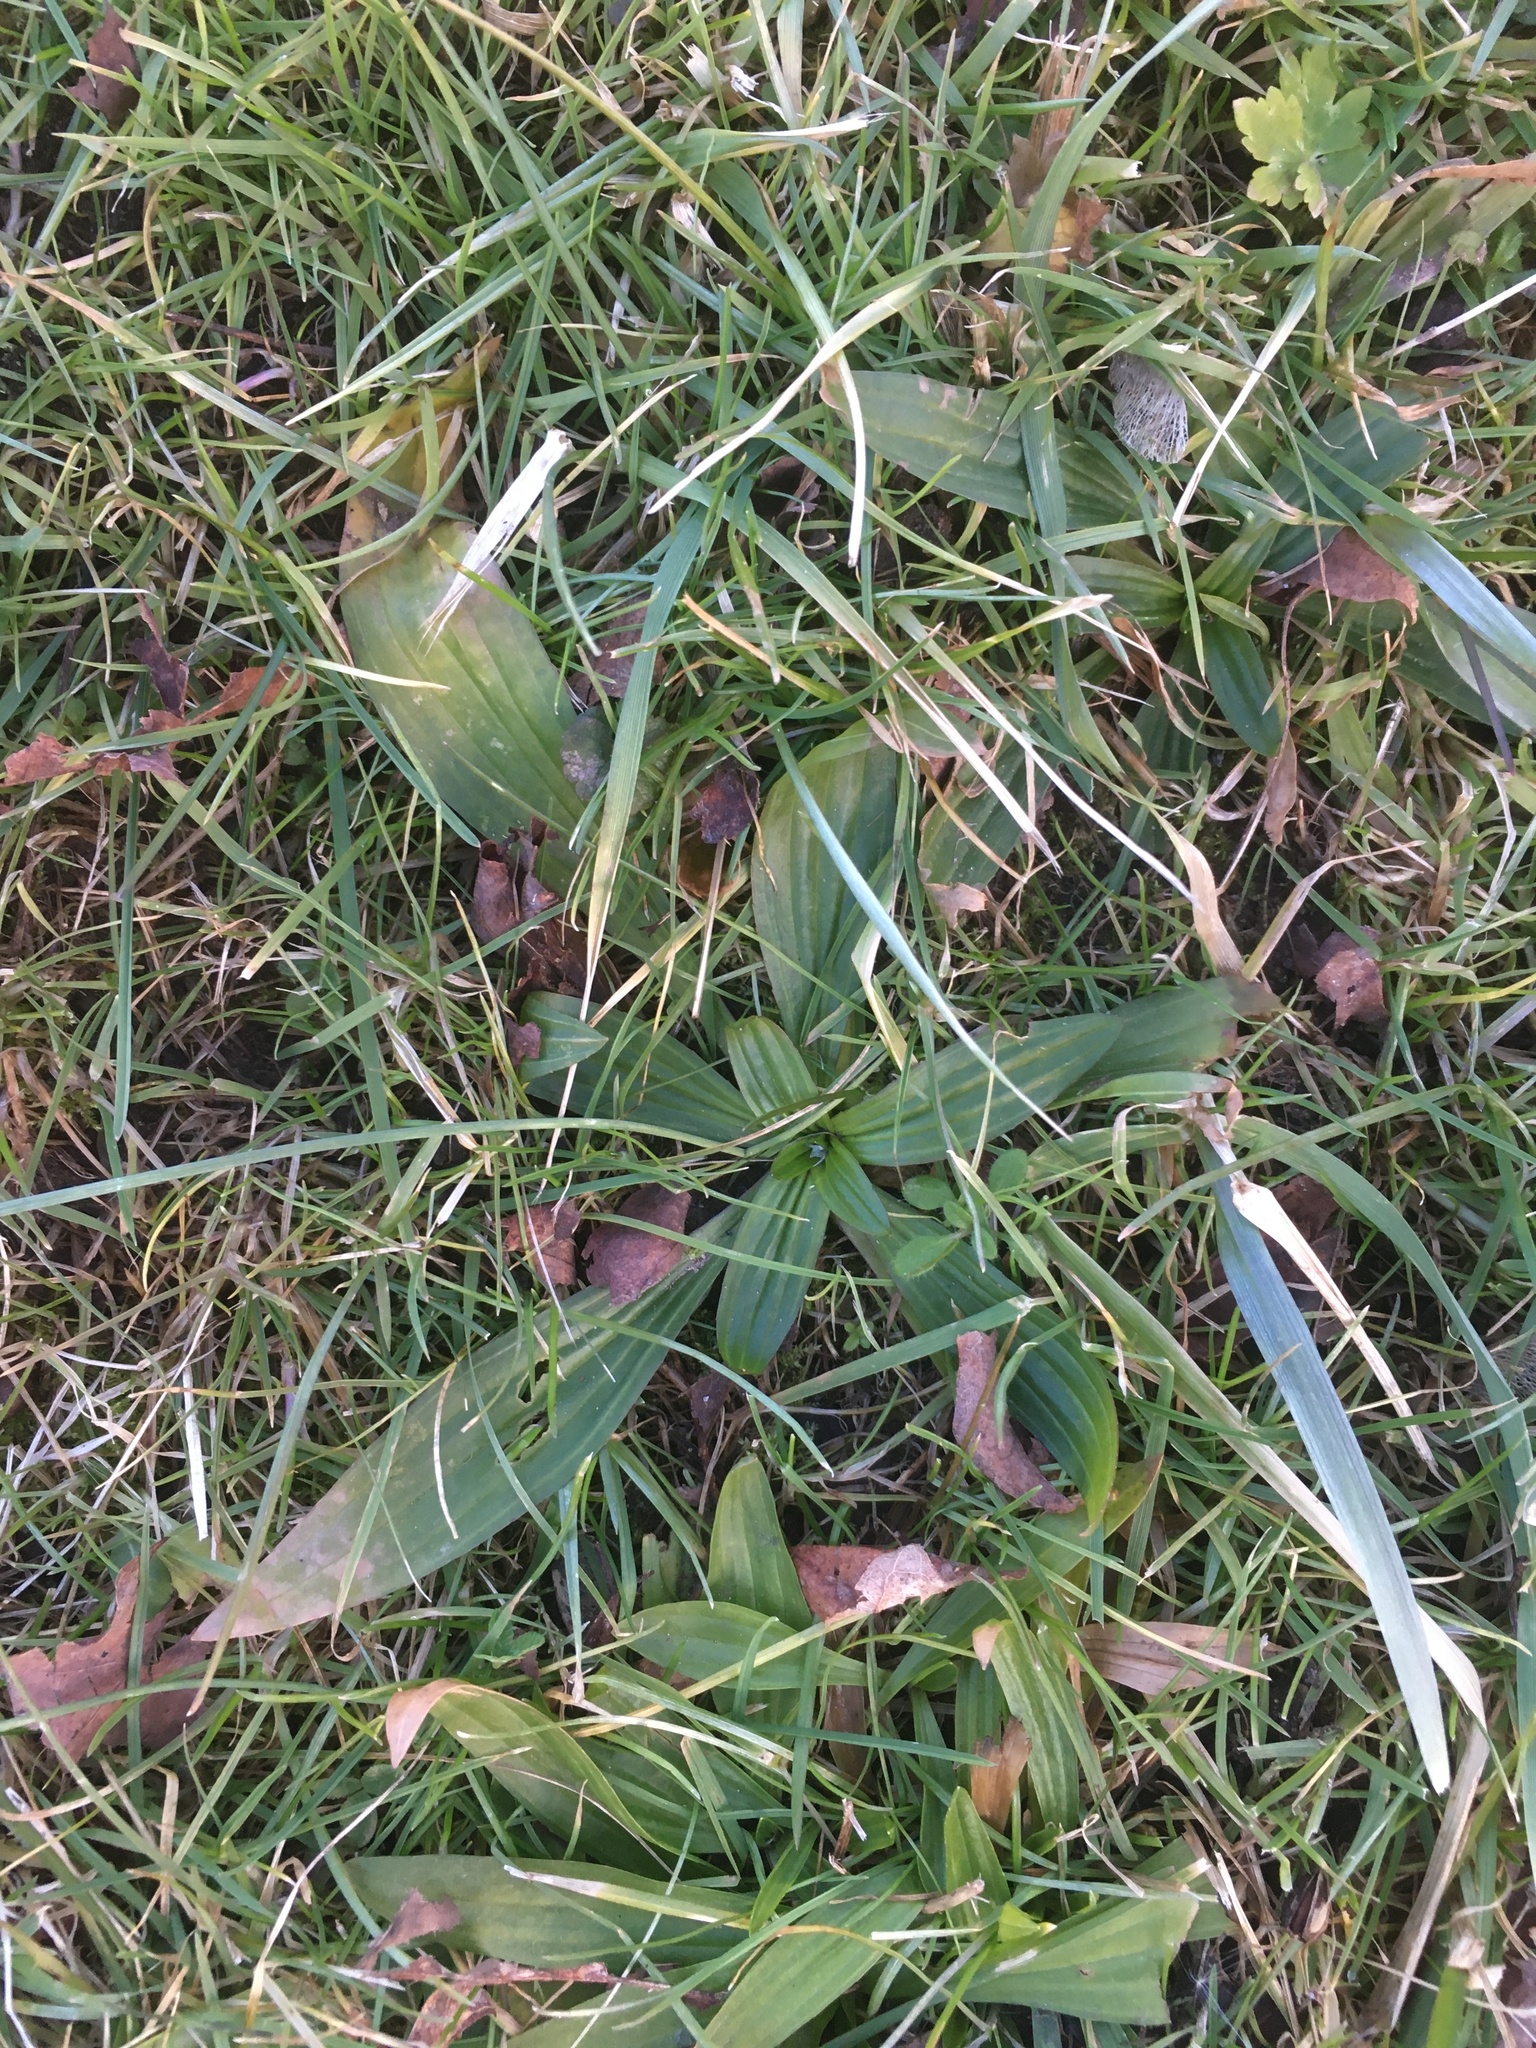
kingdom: Plantae
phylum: Tracheophyta
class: Magnoliopsida
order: Lamiales
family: Plantaginaceae
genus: Plantago
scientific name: Plantago lanceolata
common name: Ribwort plantain
